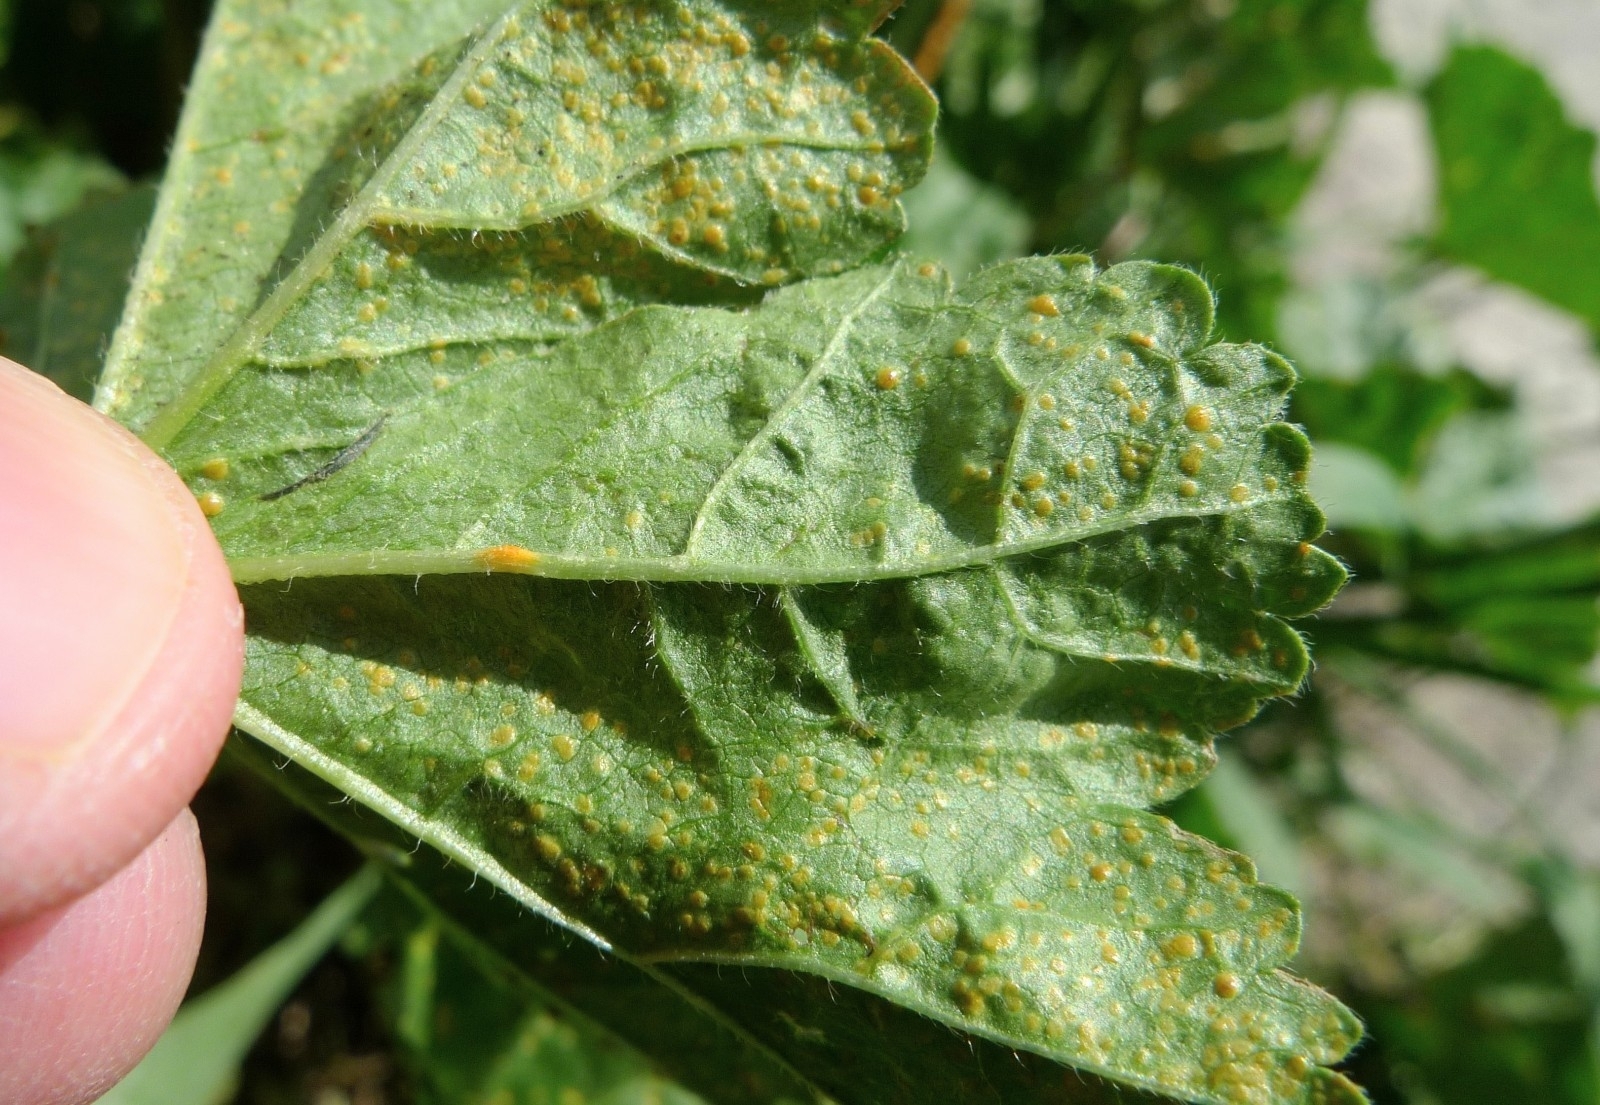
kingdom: Fungi
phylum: Basidiomycota
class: Pucciniomycetes
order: Pucciniales
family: Pucciniaceae
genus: Puccinia
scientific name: Puccinia malvacearum
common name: Hollyhock rust
